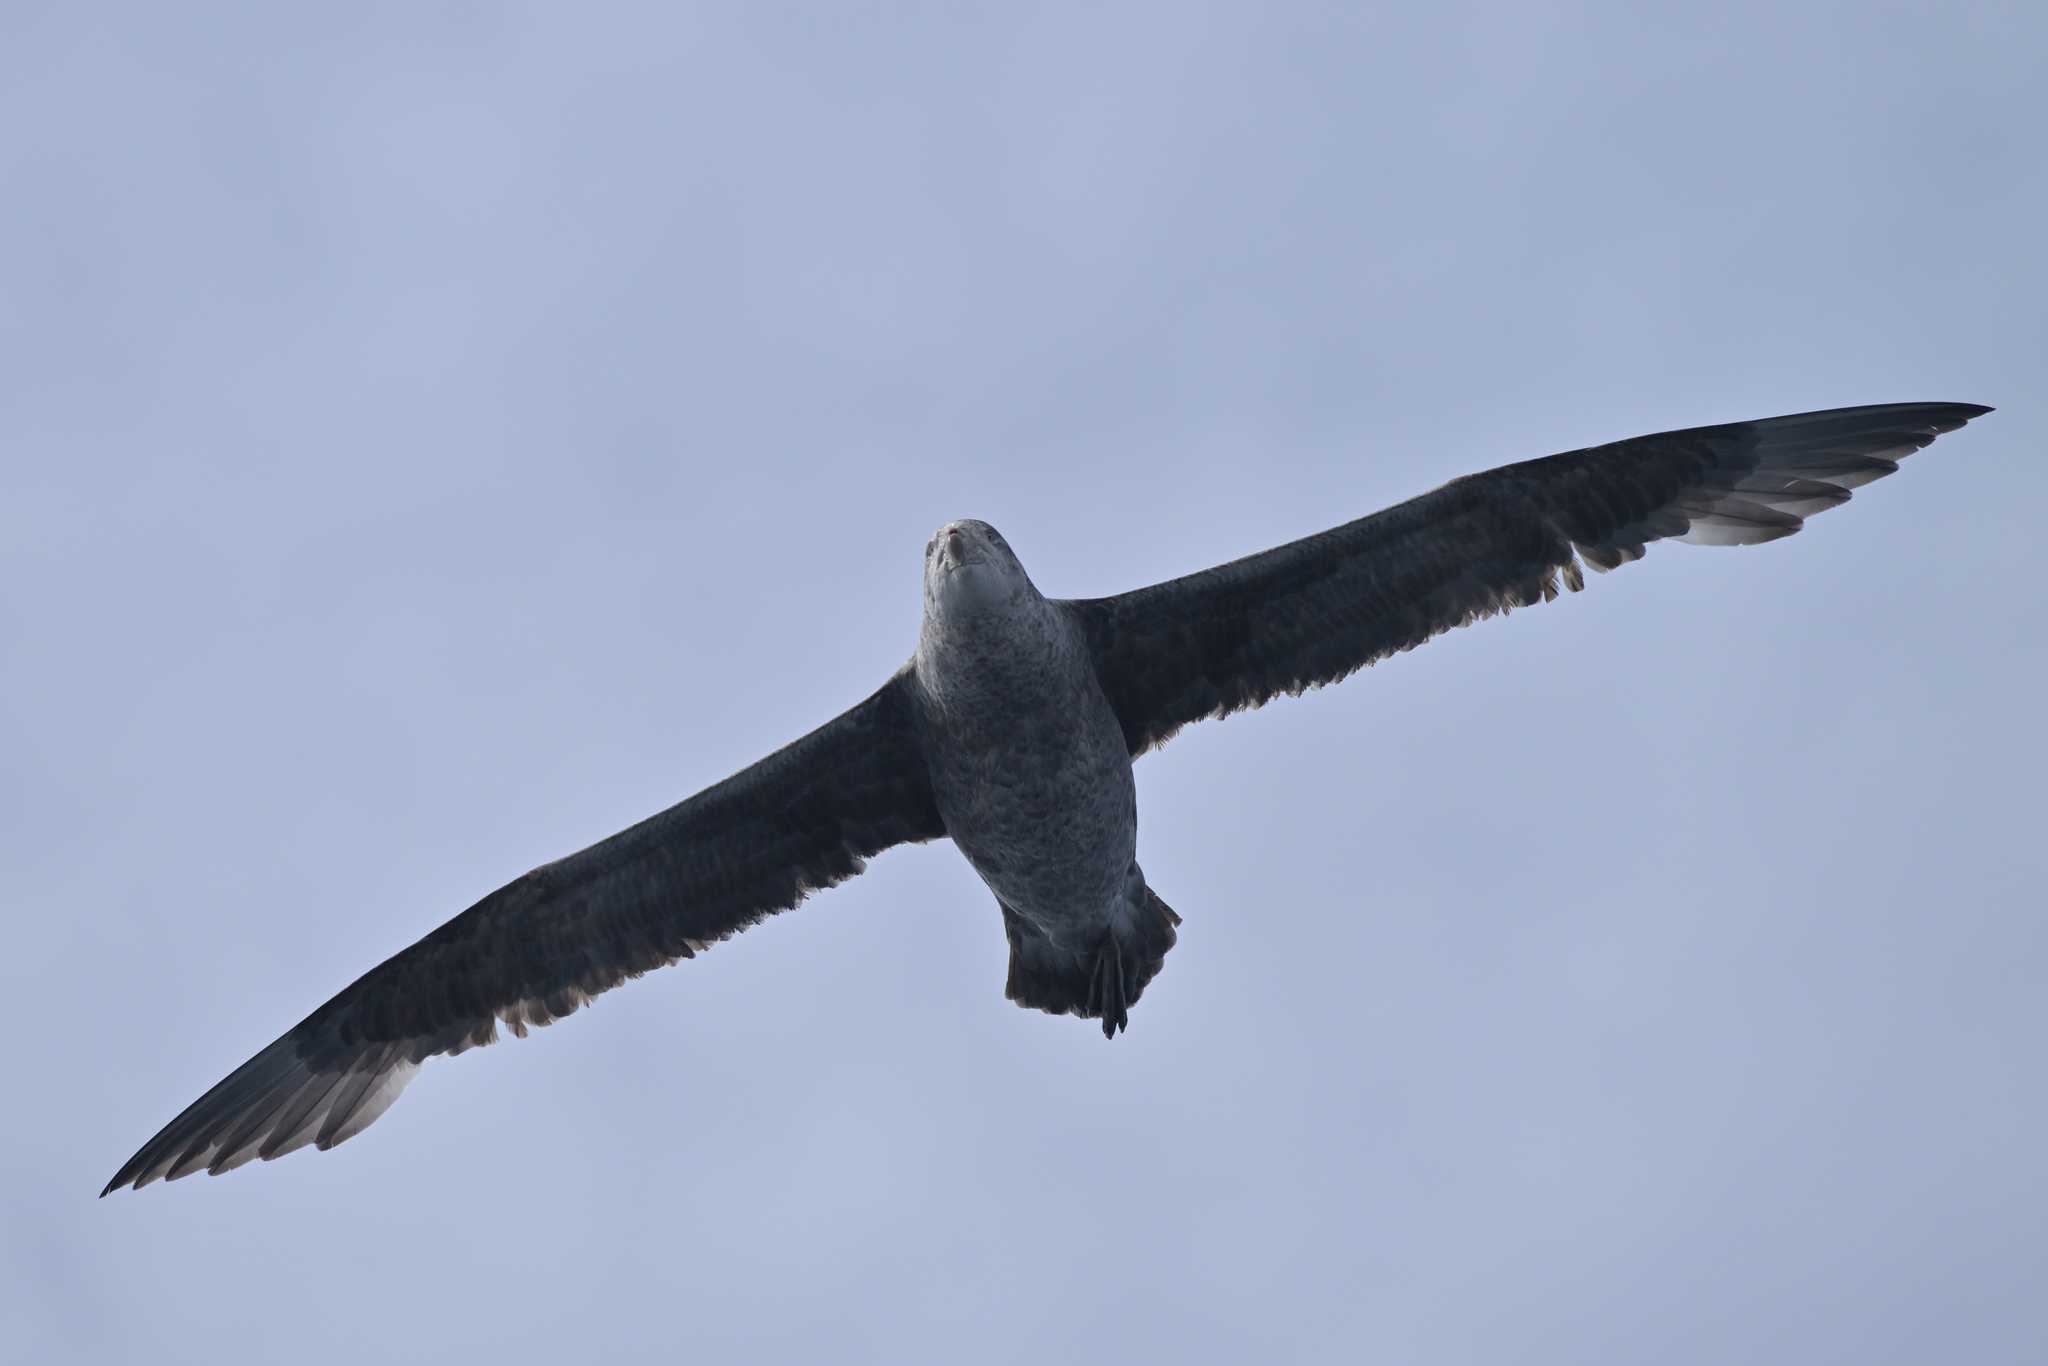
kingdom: Animalia
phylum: Chordata
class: Aves
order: Procellariiformes
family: Procellariidae
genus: Macronectes
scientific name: Macronectes halli
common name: Northern giant petrel
